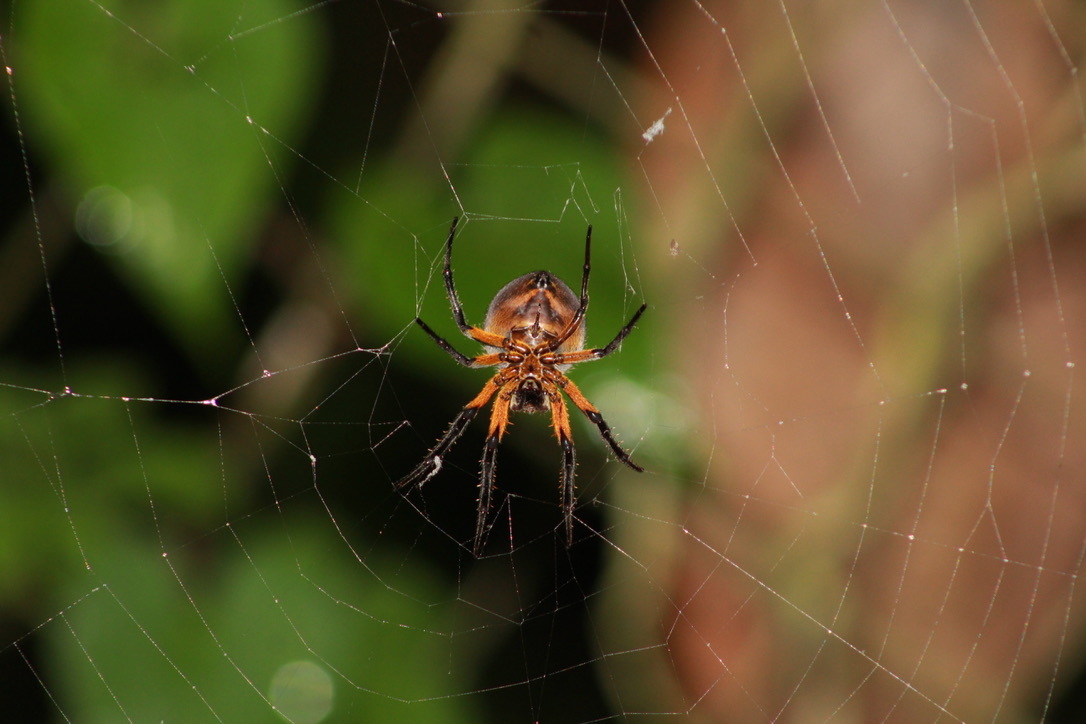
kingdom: Animalia
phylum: Arthropoda
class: Arachnida
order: Araneae
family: Araneidae
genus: Eriophora
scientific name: Eriophora fuliginea
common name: Orb weavers
